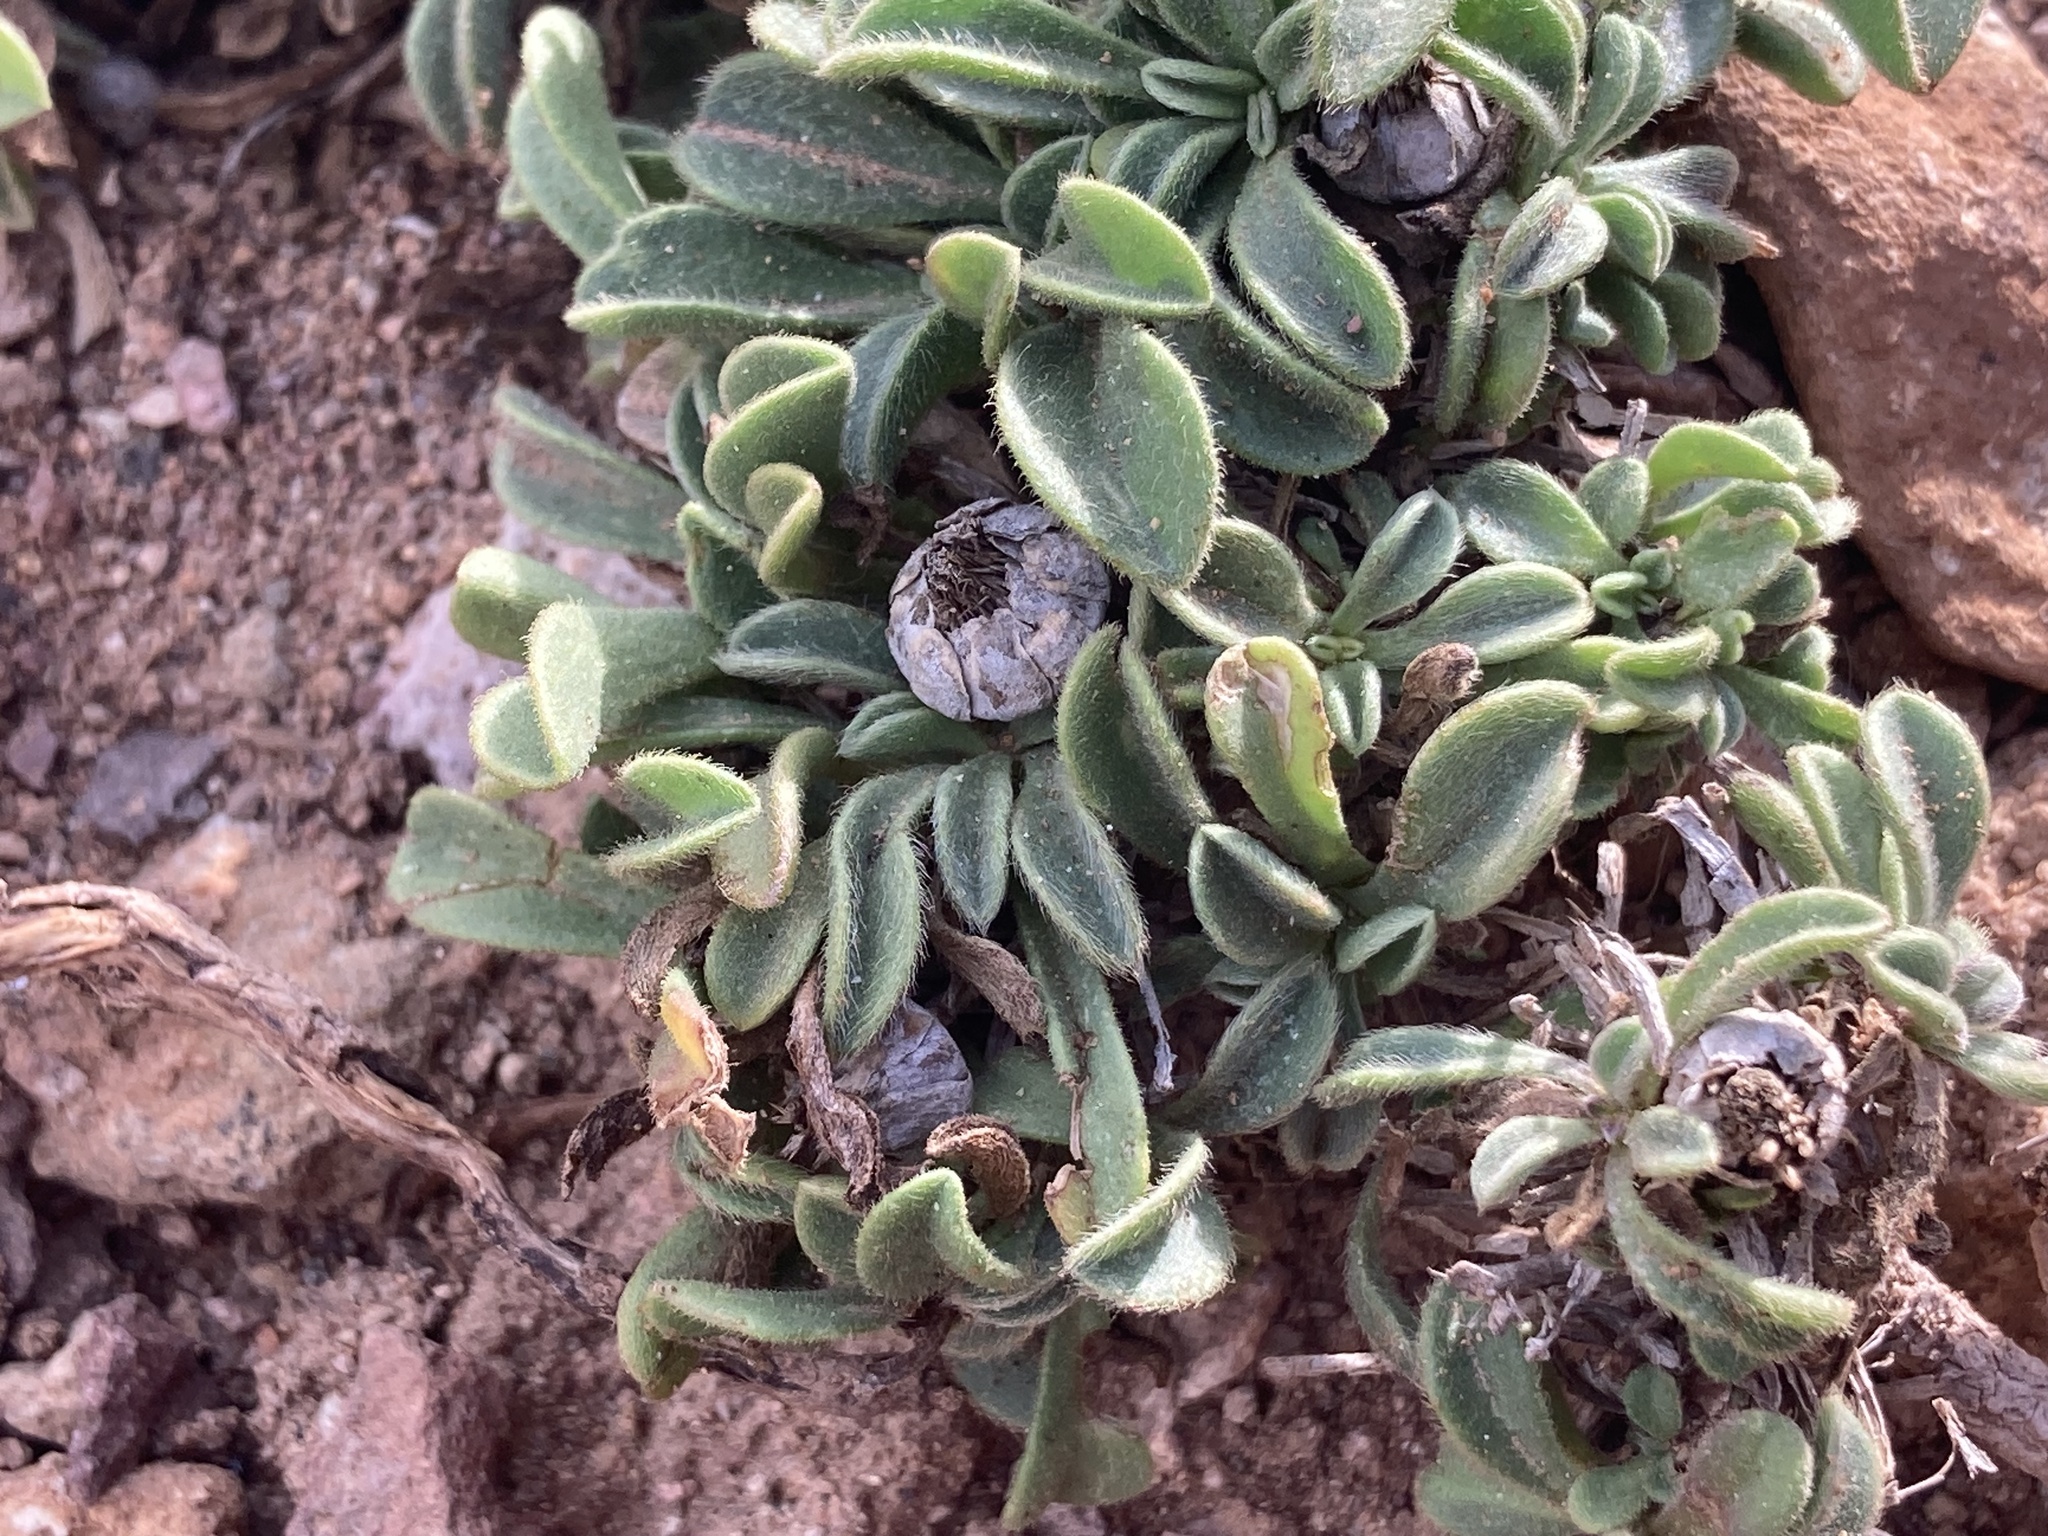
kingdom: Plantae
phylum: Tracheophyta
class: Magnoliopsida
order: Asterales
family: Asteraceae
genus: Pallenis
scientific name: Pallenis maritima
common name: Golden coin daisy
